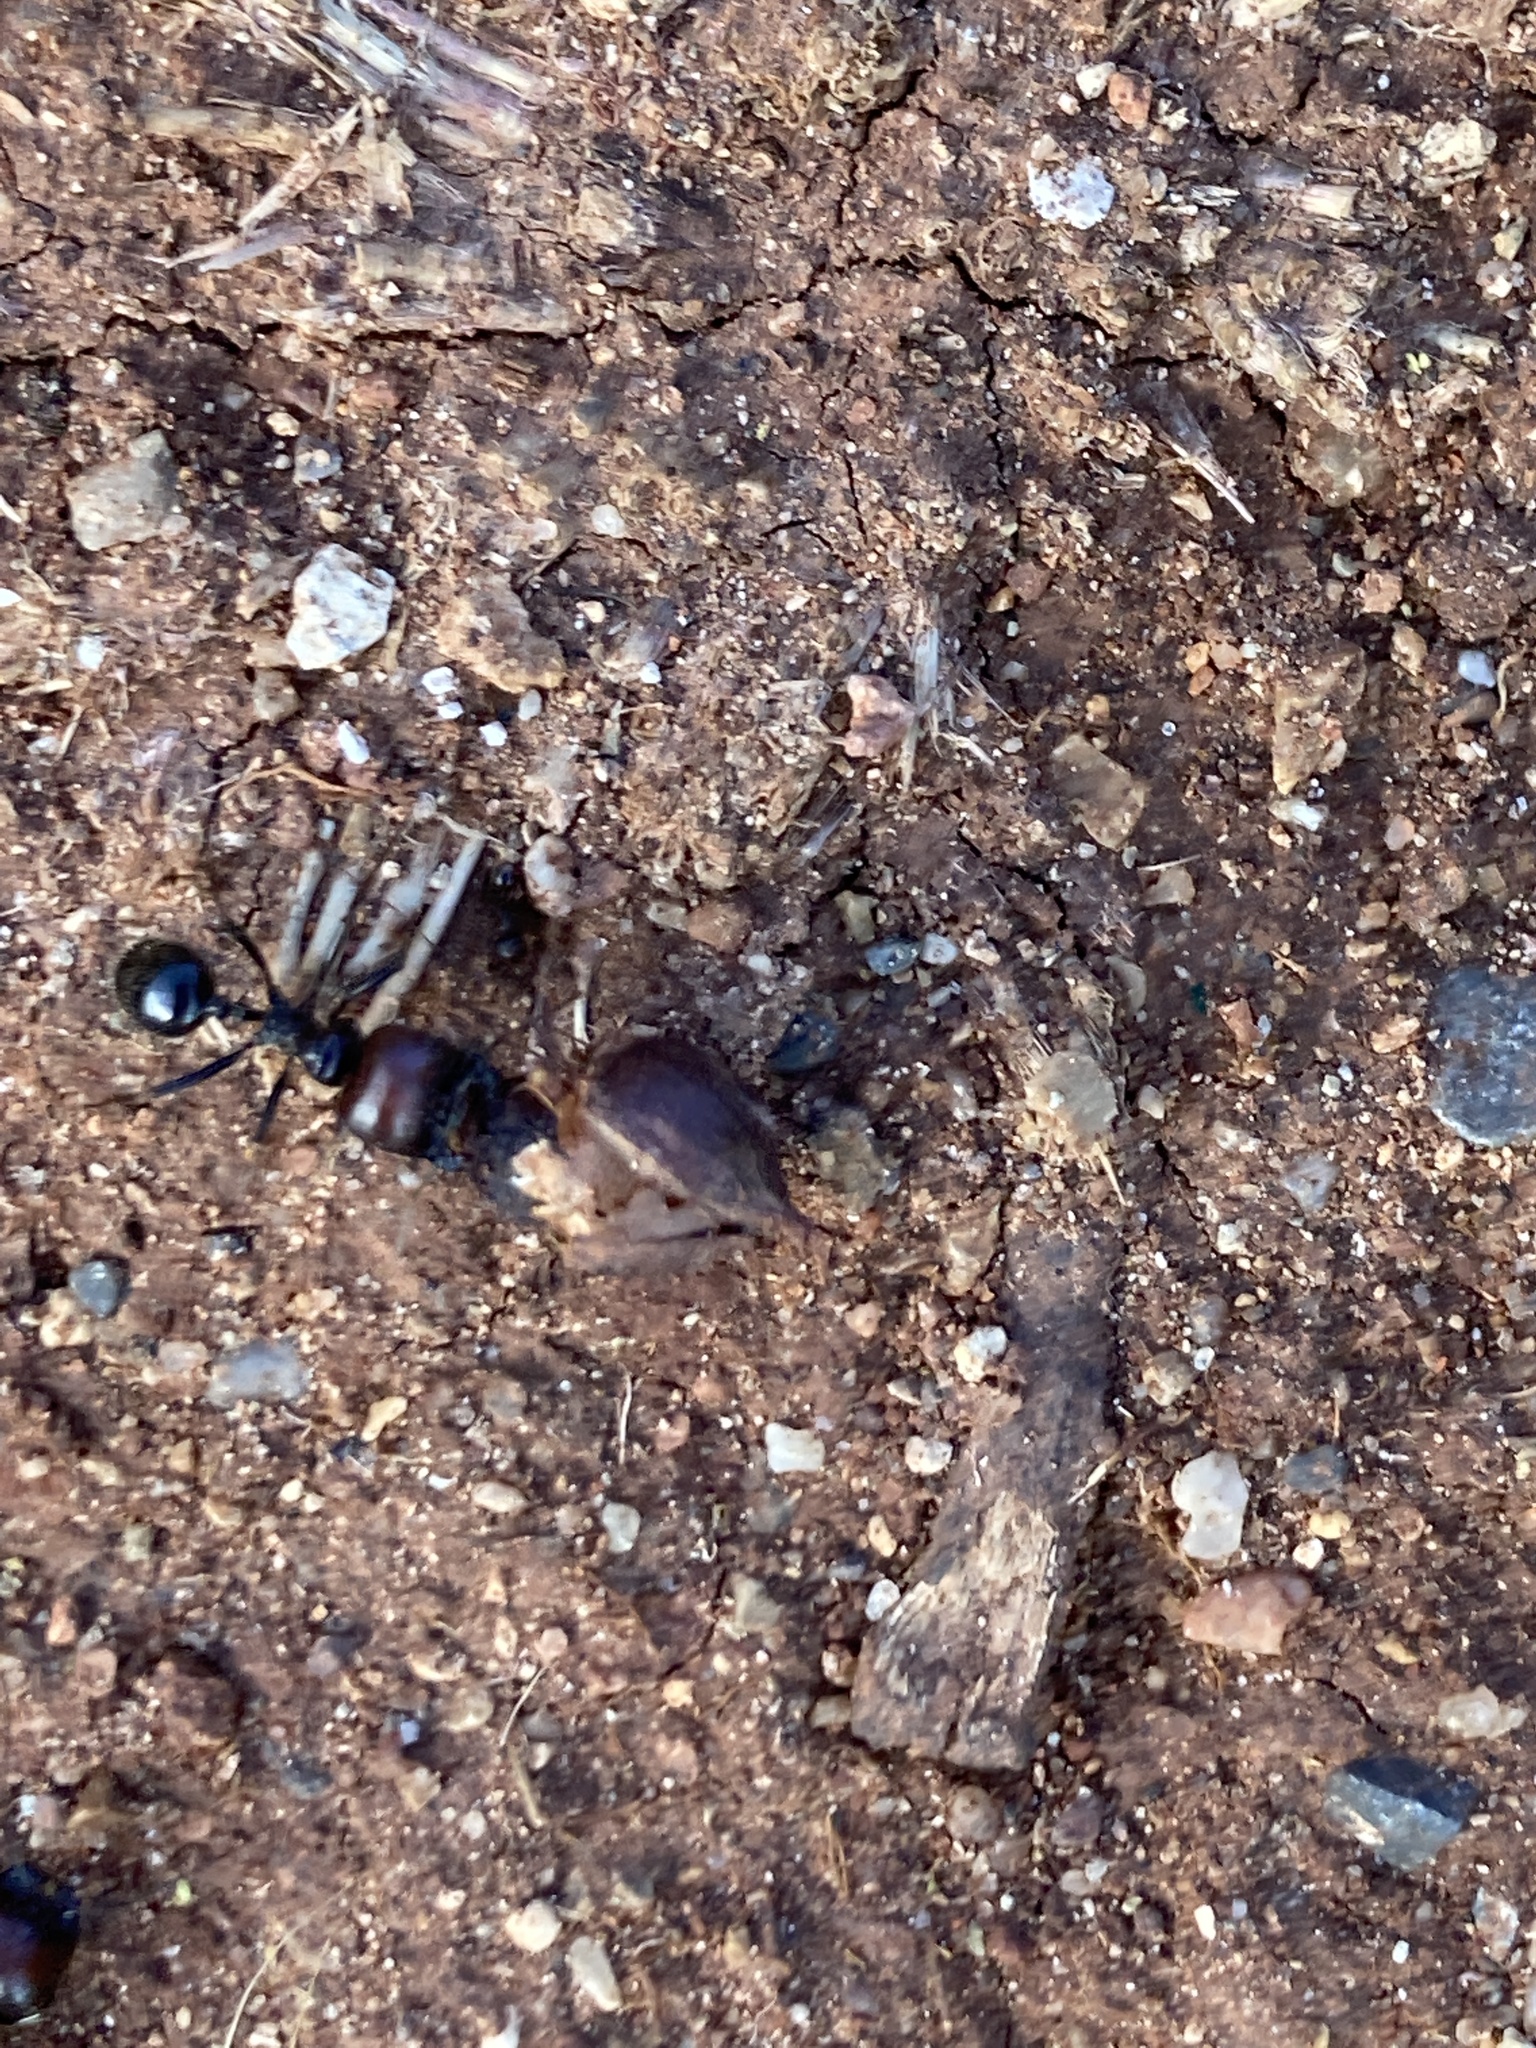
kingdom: Animalia
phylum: Arthropoda
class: Insecta
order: Hymenoptera
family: Formicidae
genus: Messor
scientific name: Messor barbarus
